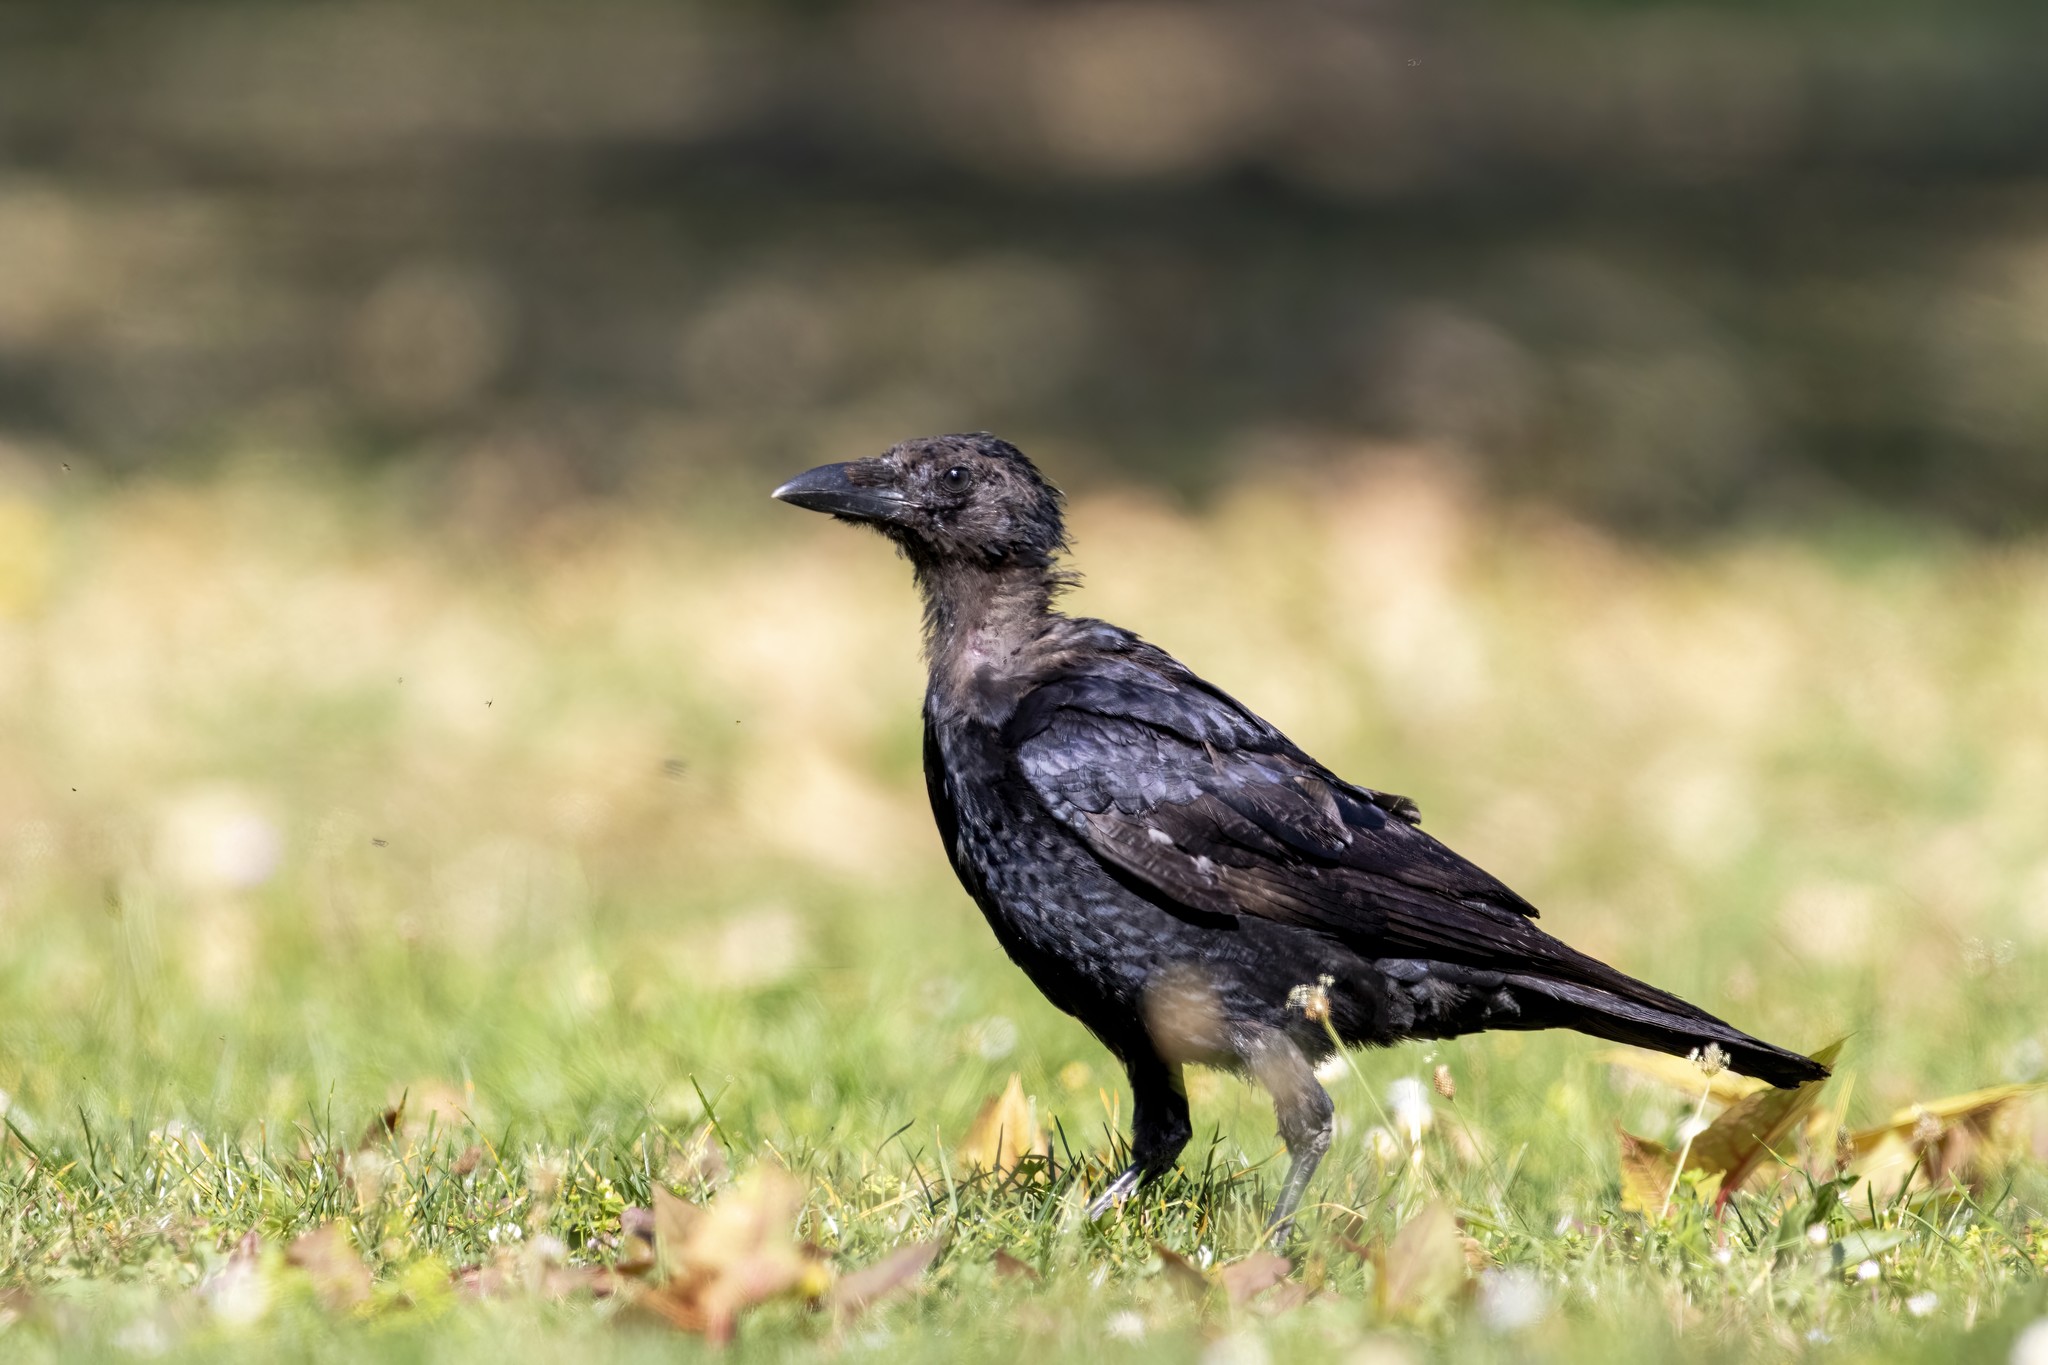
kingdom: Animalia
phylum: Chordata
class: Aves
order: Passeriformes
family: Corvidae
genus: Corvus
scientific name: Corvus corone
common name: Carrion crow
